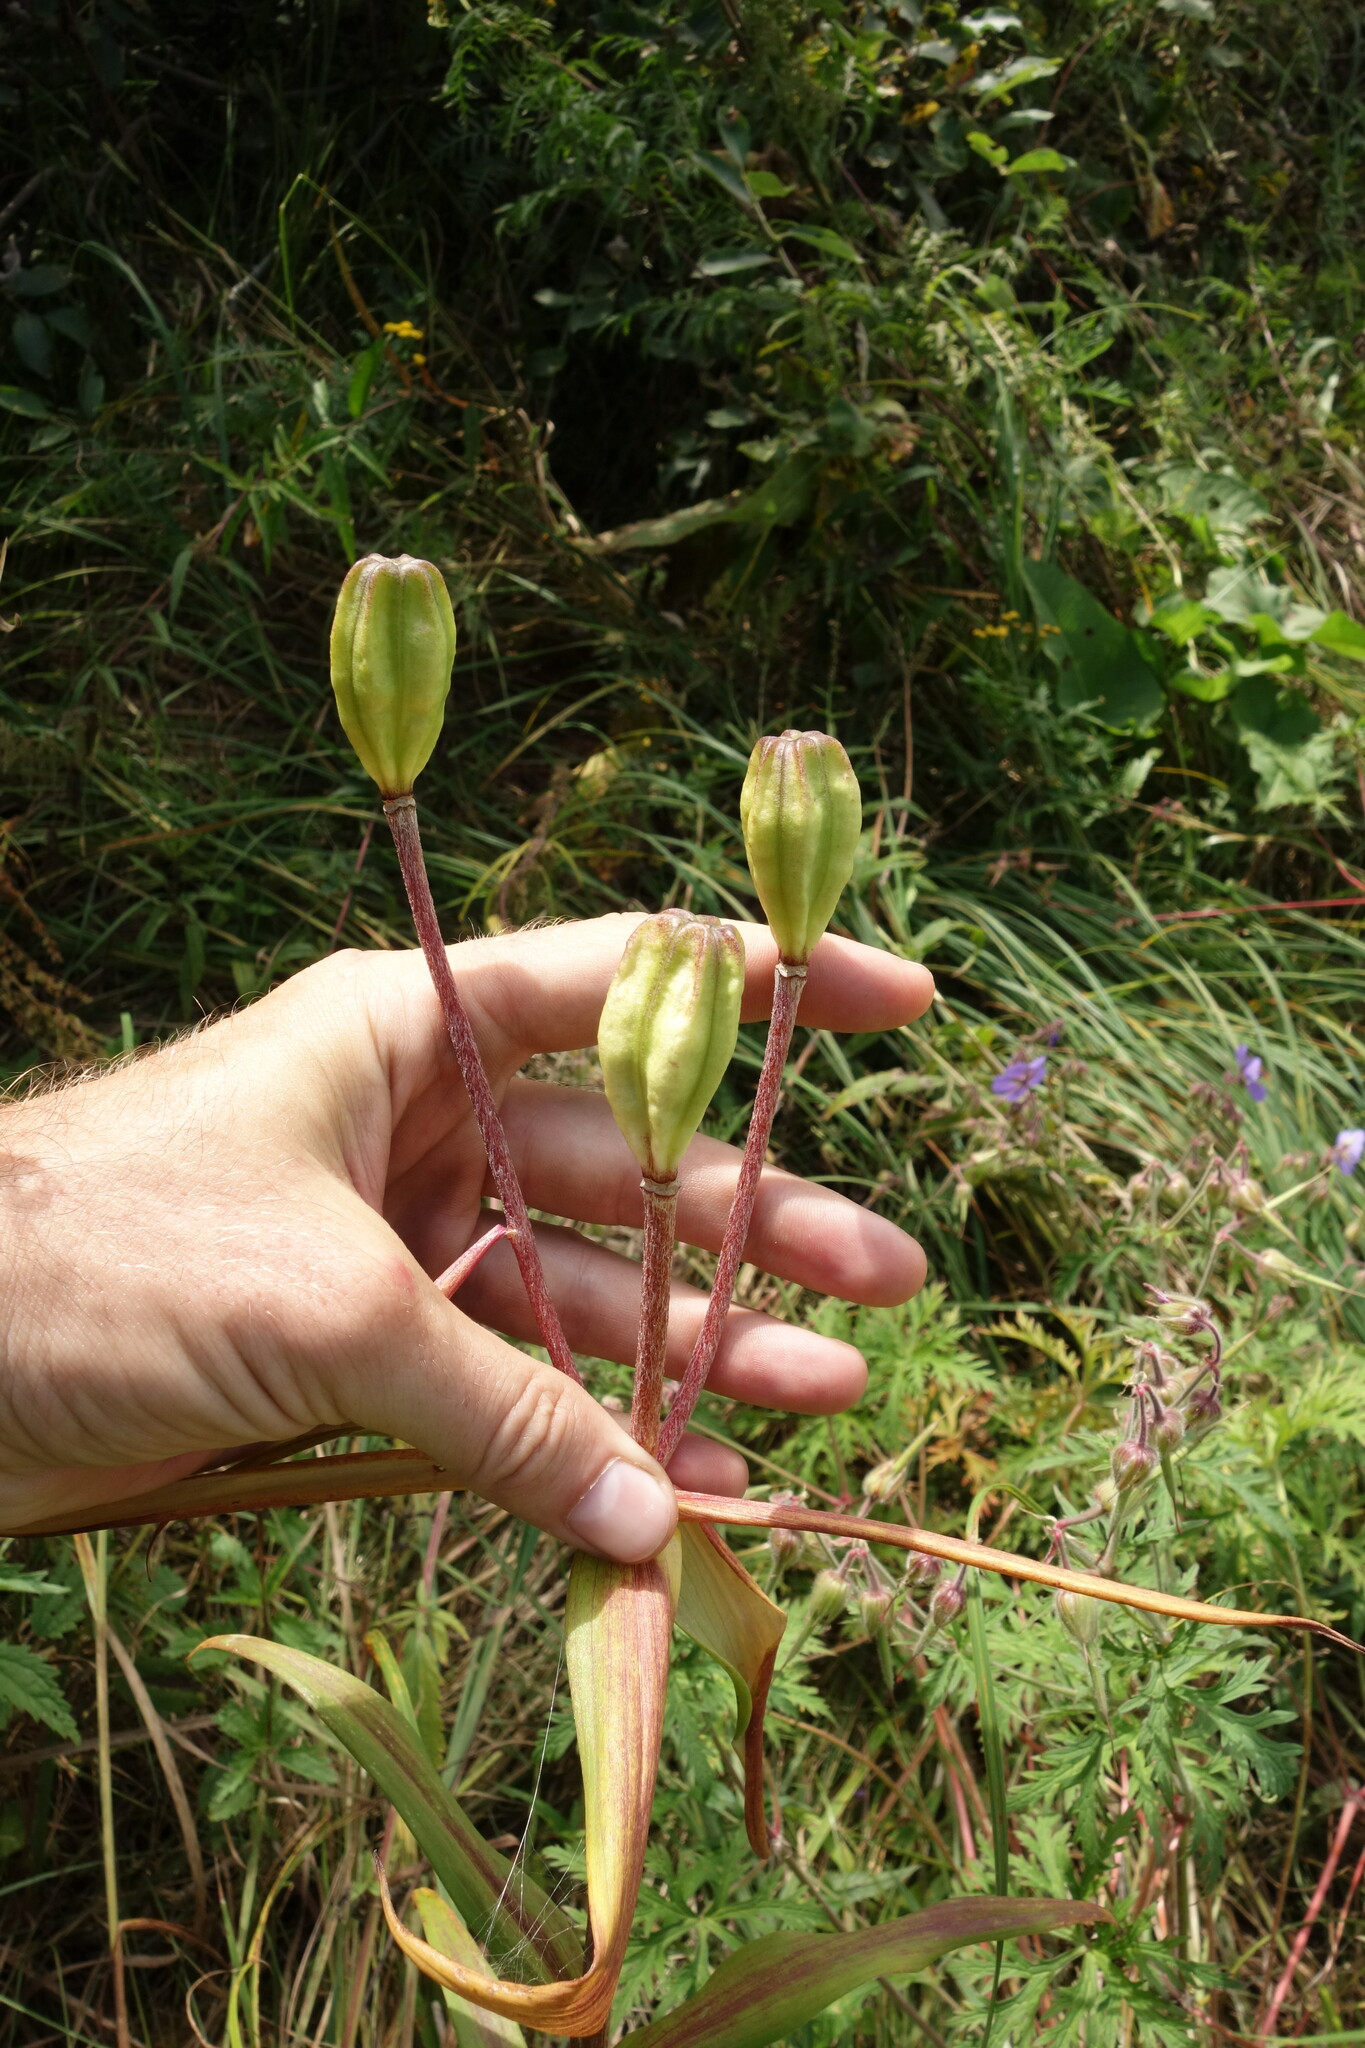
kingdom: Plantae
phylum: Tracheophyta
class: Liliopsida
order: Liliales
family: Liliaceae
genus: Lilium
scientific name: Lilium pensylvanicum
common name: Candlestick lily
